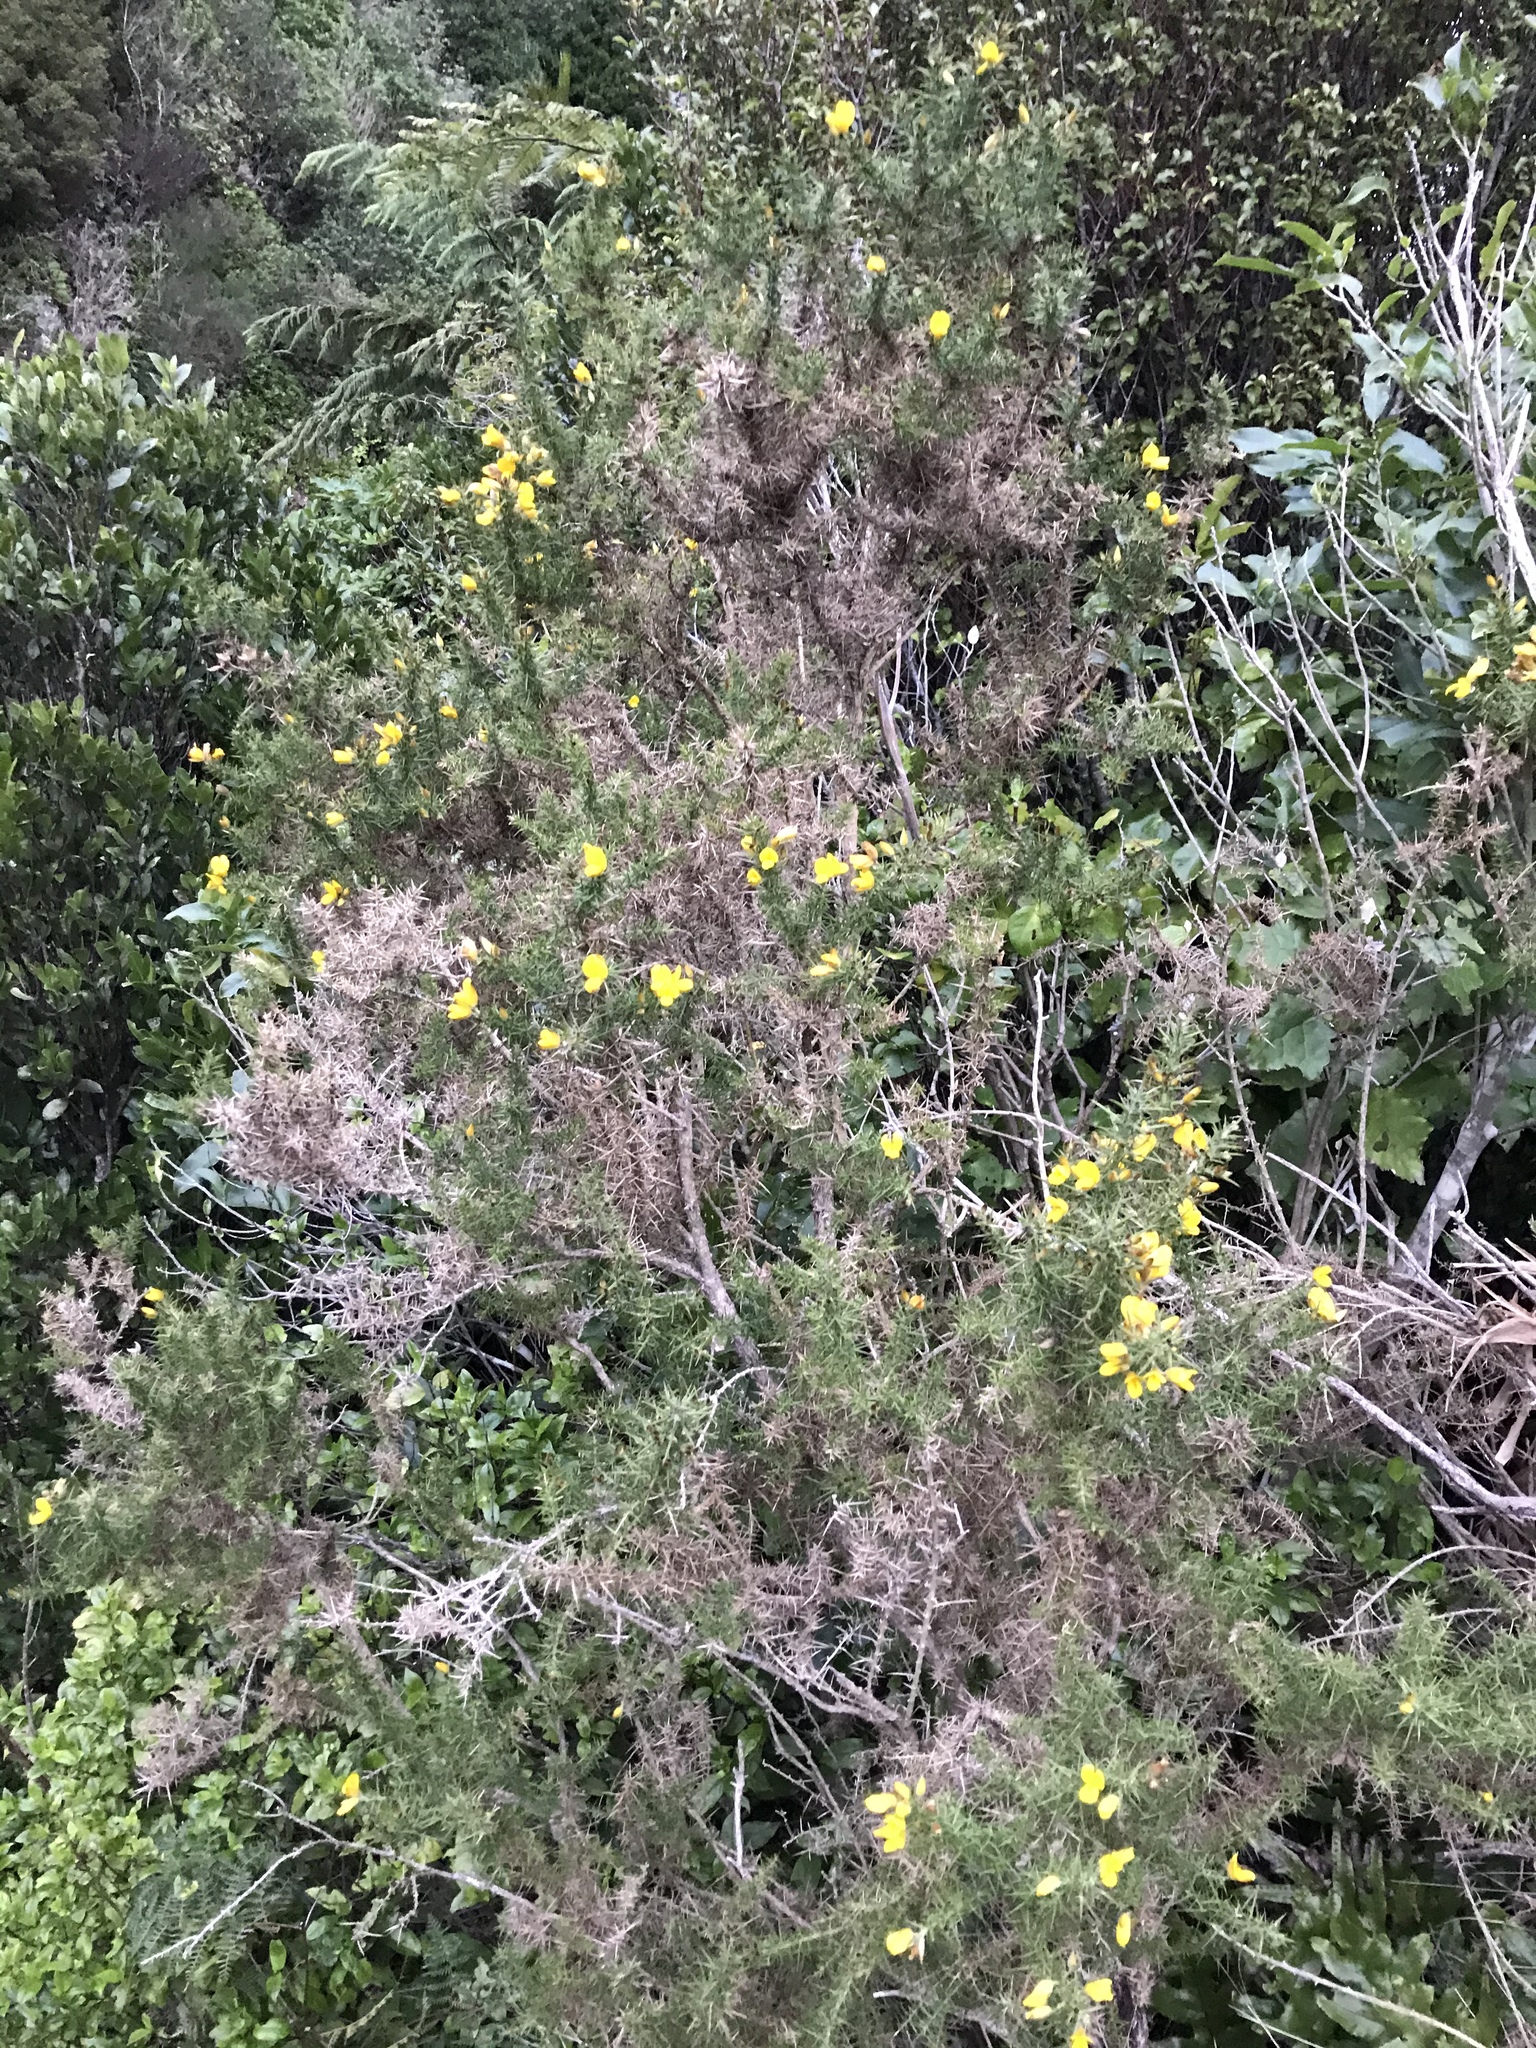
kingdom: Plantae
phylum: Tracheophyta
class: Magnoliopsida
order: Fabales
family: Fabaceae
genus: Ulex
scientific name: Ulex europaeus
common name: Common gorse
